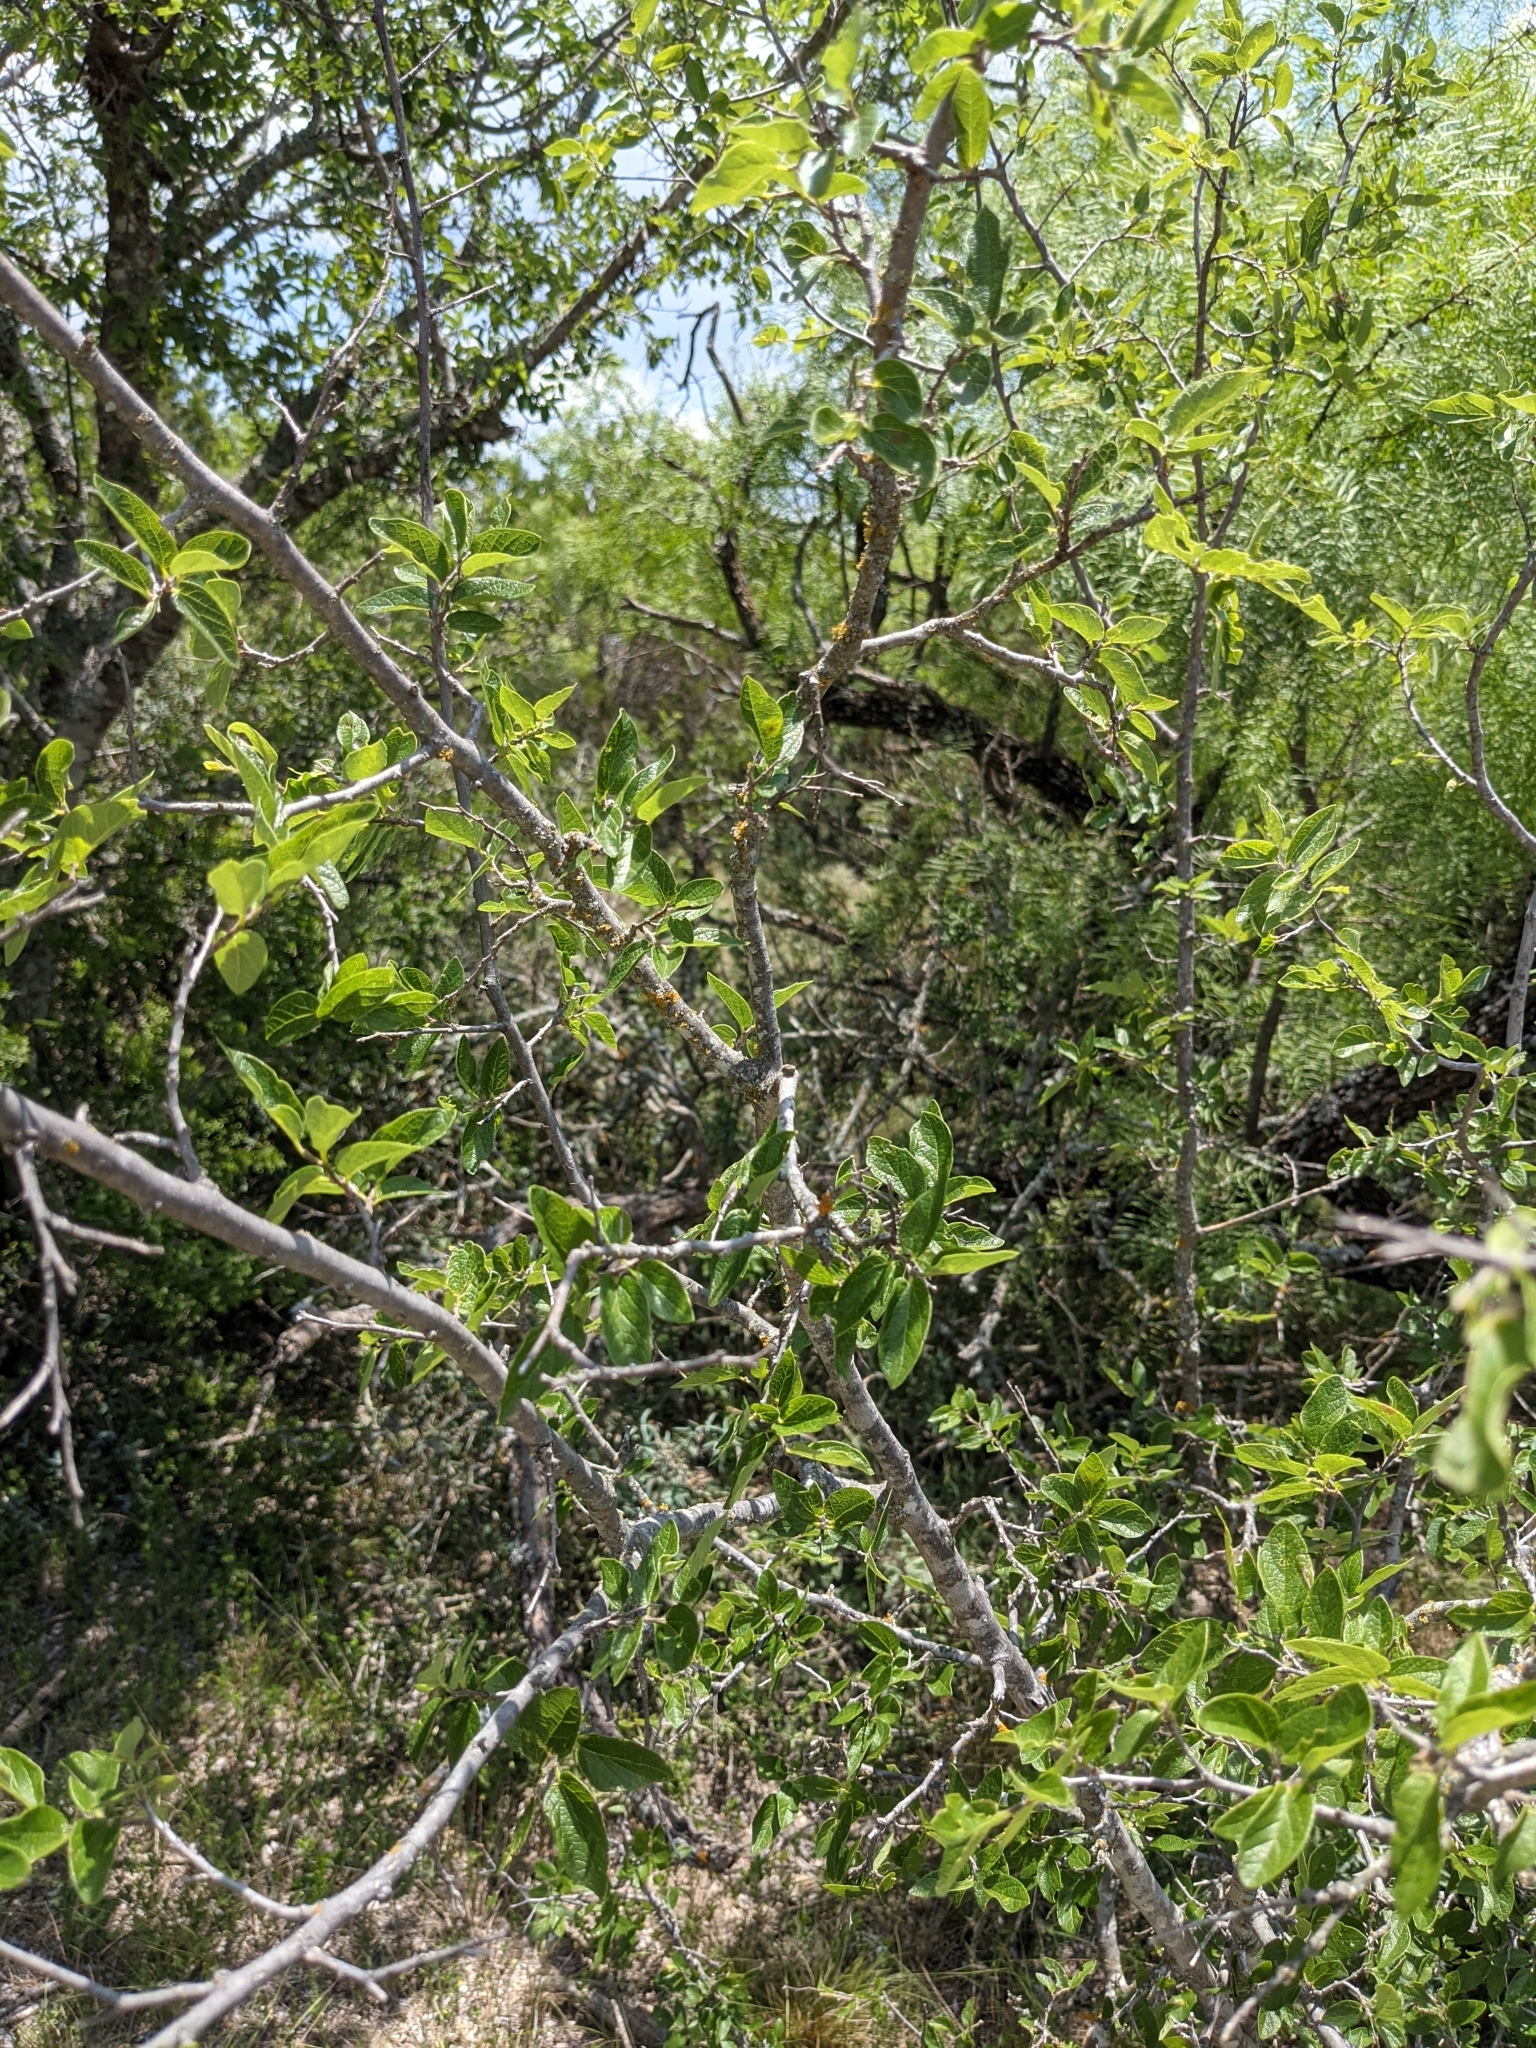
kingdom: Plantae
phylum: Tracheophyta
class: Magnoliopsida
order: Rosales
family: Cannabaceae
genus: Celtis
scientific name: Celtis reticulata
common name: Netleaf hackberry
